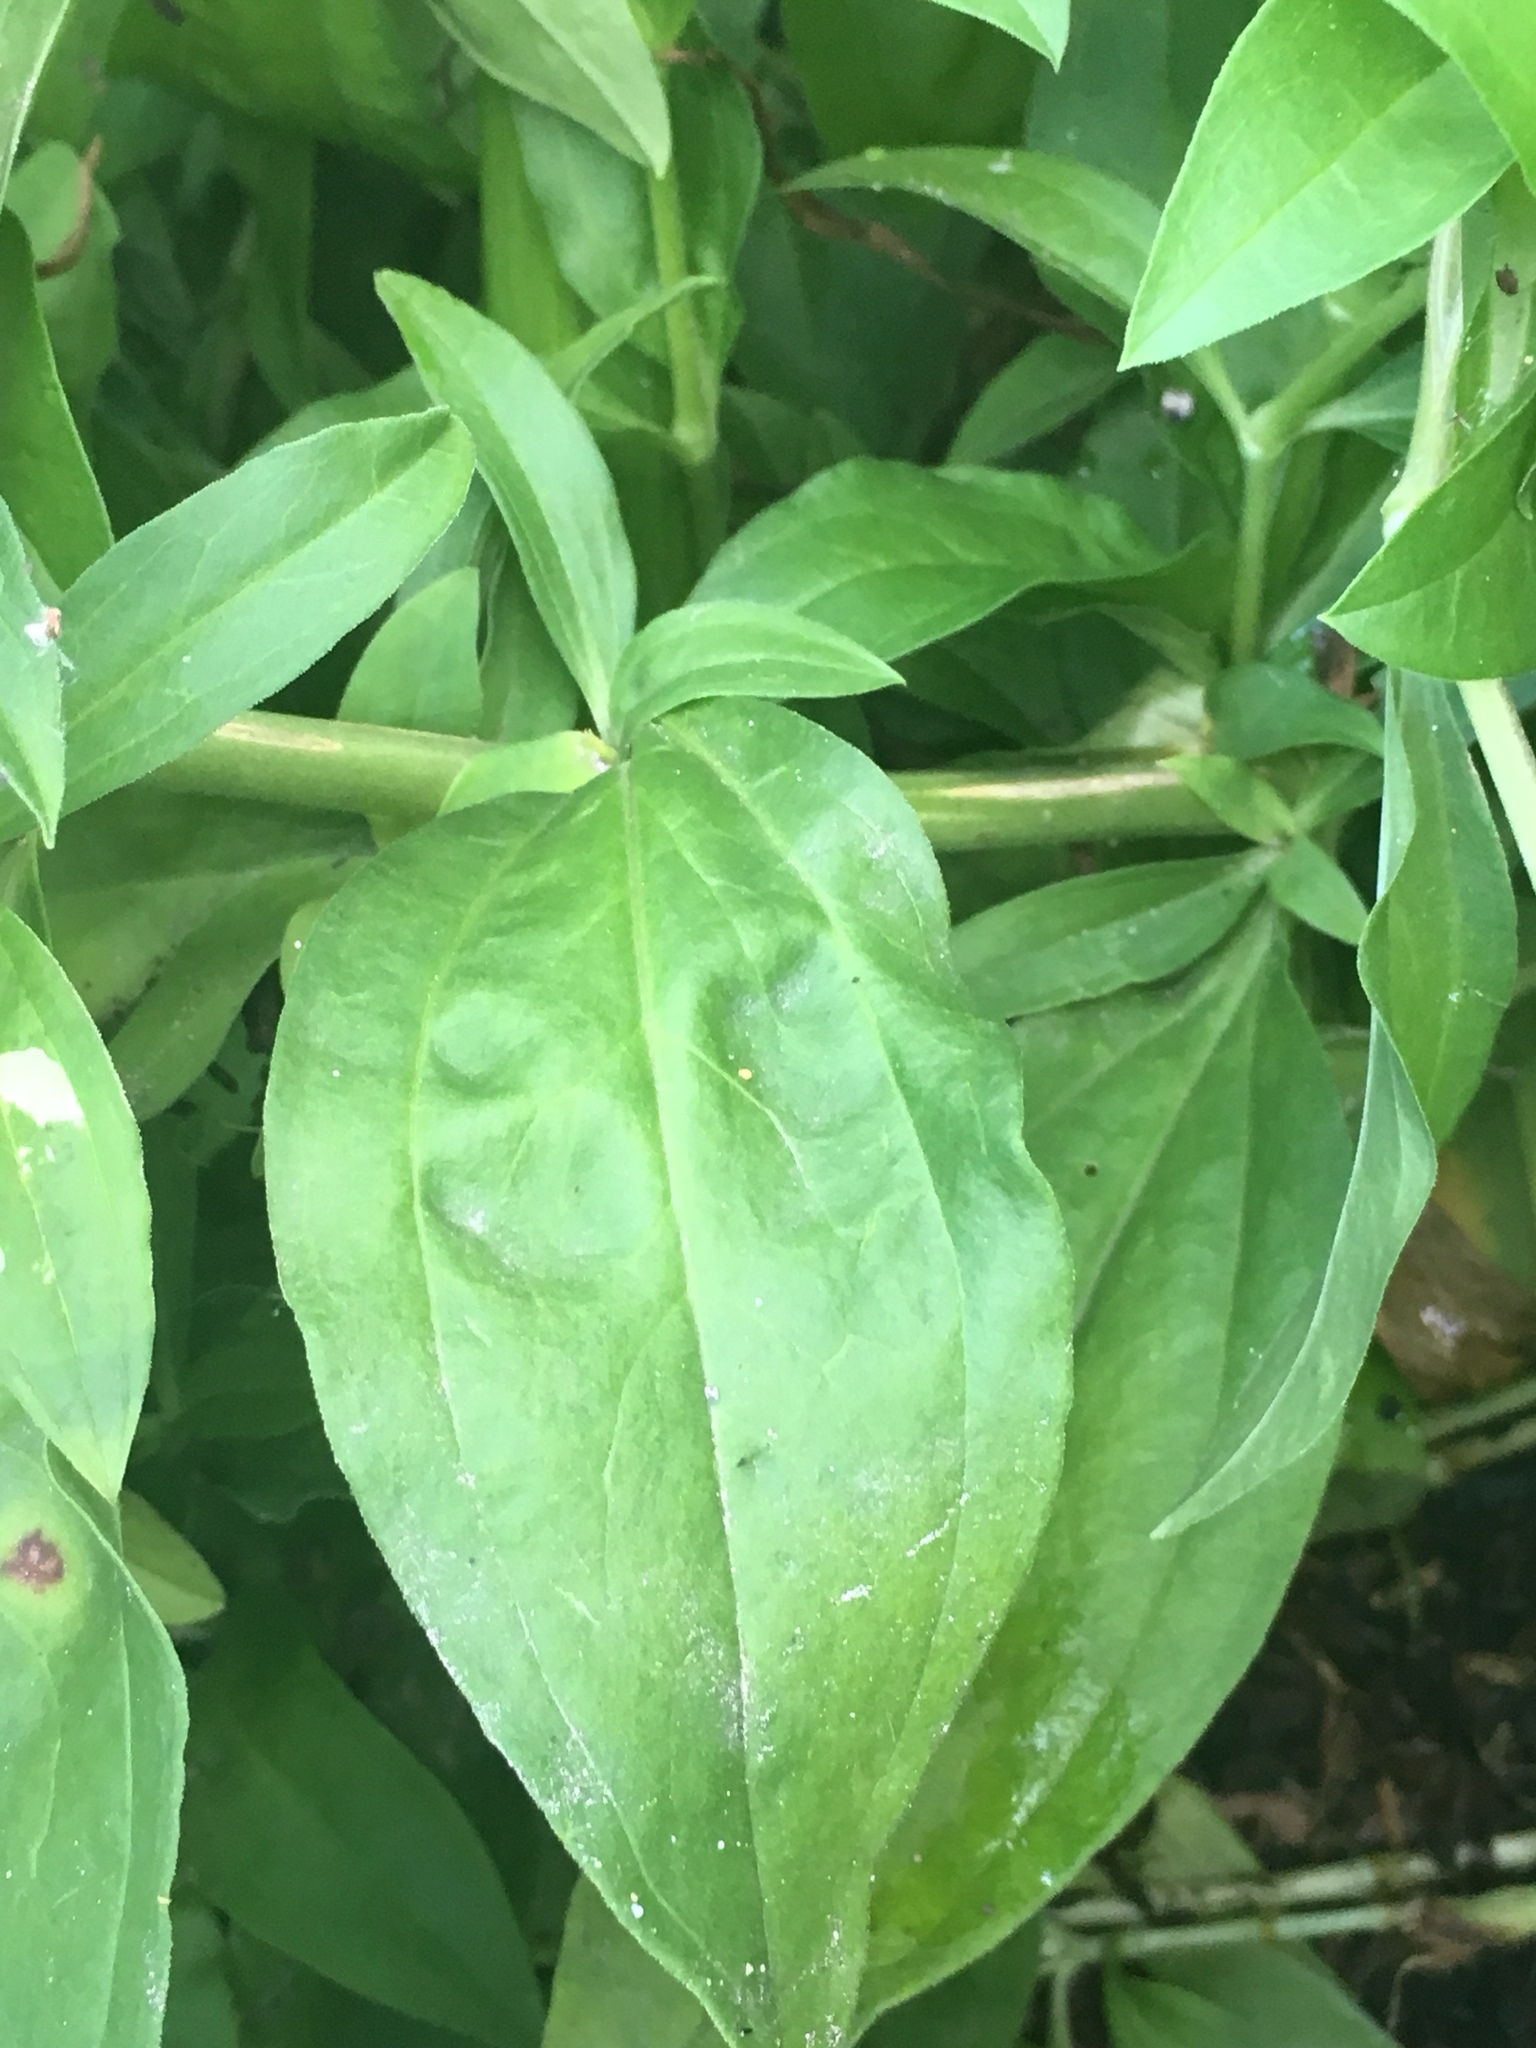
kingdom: Plantae
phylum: Tracheophyta
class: Magnoliopsida
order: Caryophyllales
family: Caryophyllaceae
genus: Saponaria
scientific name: Saponaria officinalis
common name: Soapwort
